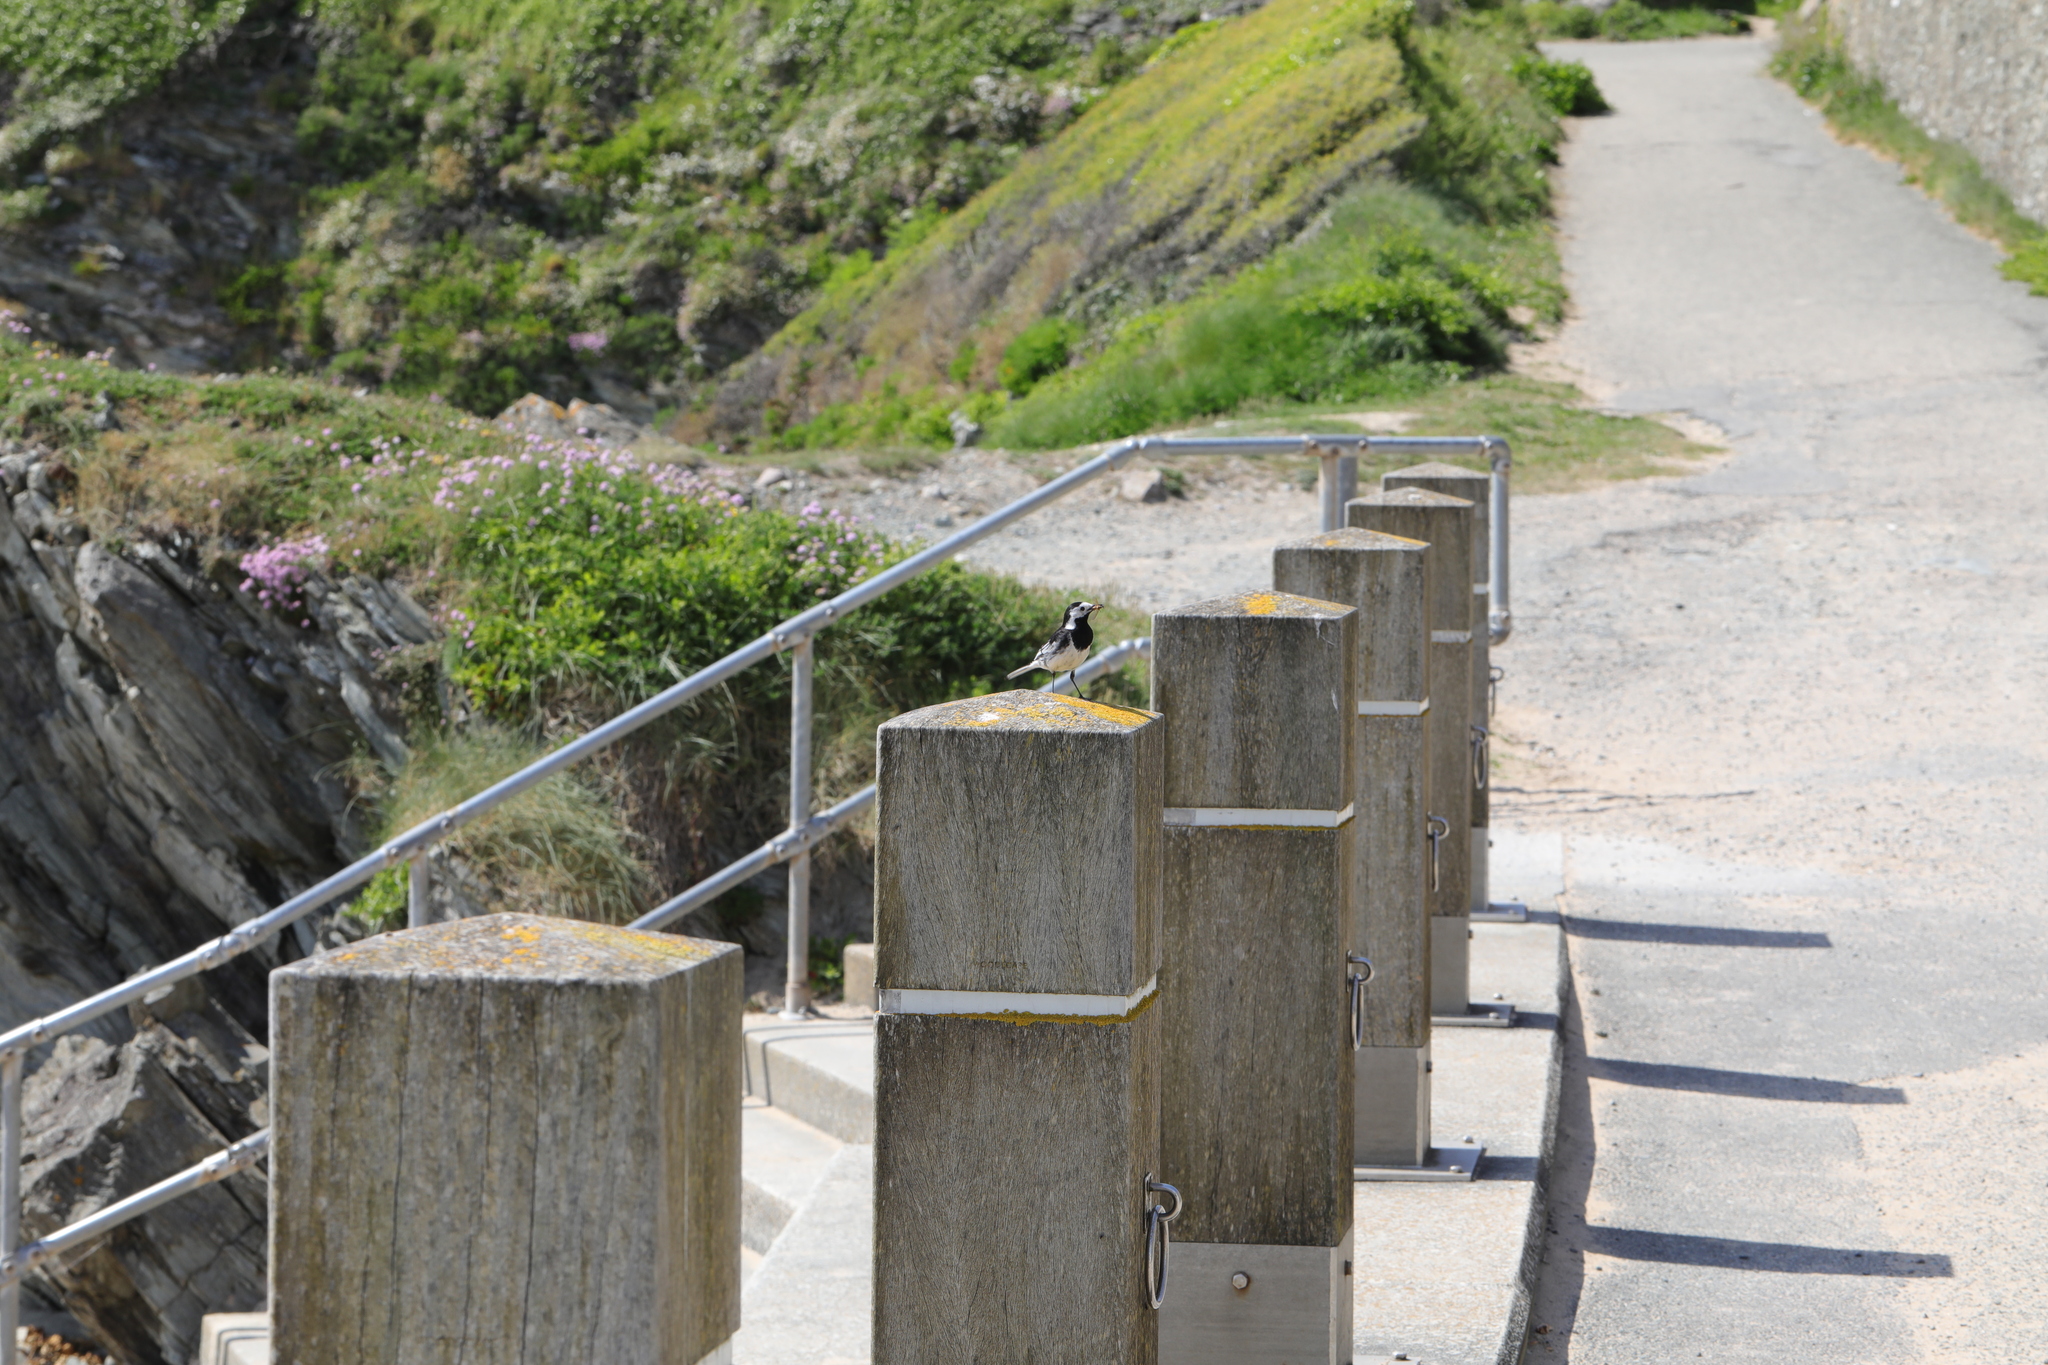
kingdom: Animalia
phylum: Chordata
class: Aves
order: Passeriformes
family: Motacillidae
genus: Motacilla
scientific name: Motacilla alba
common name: White wagtail
